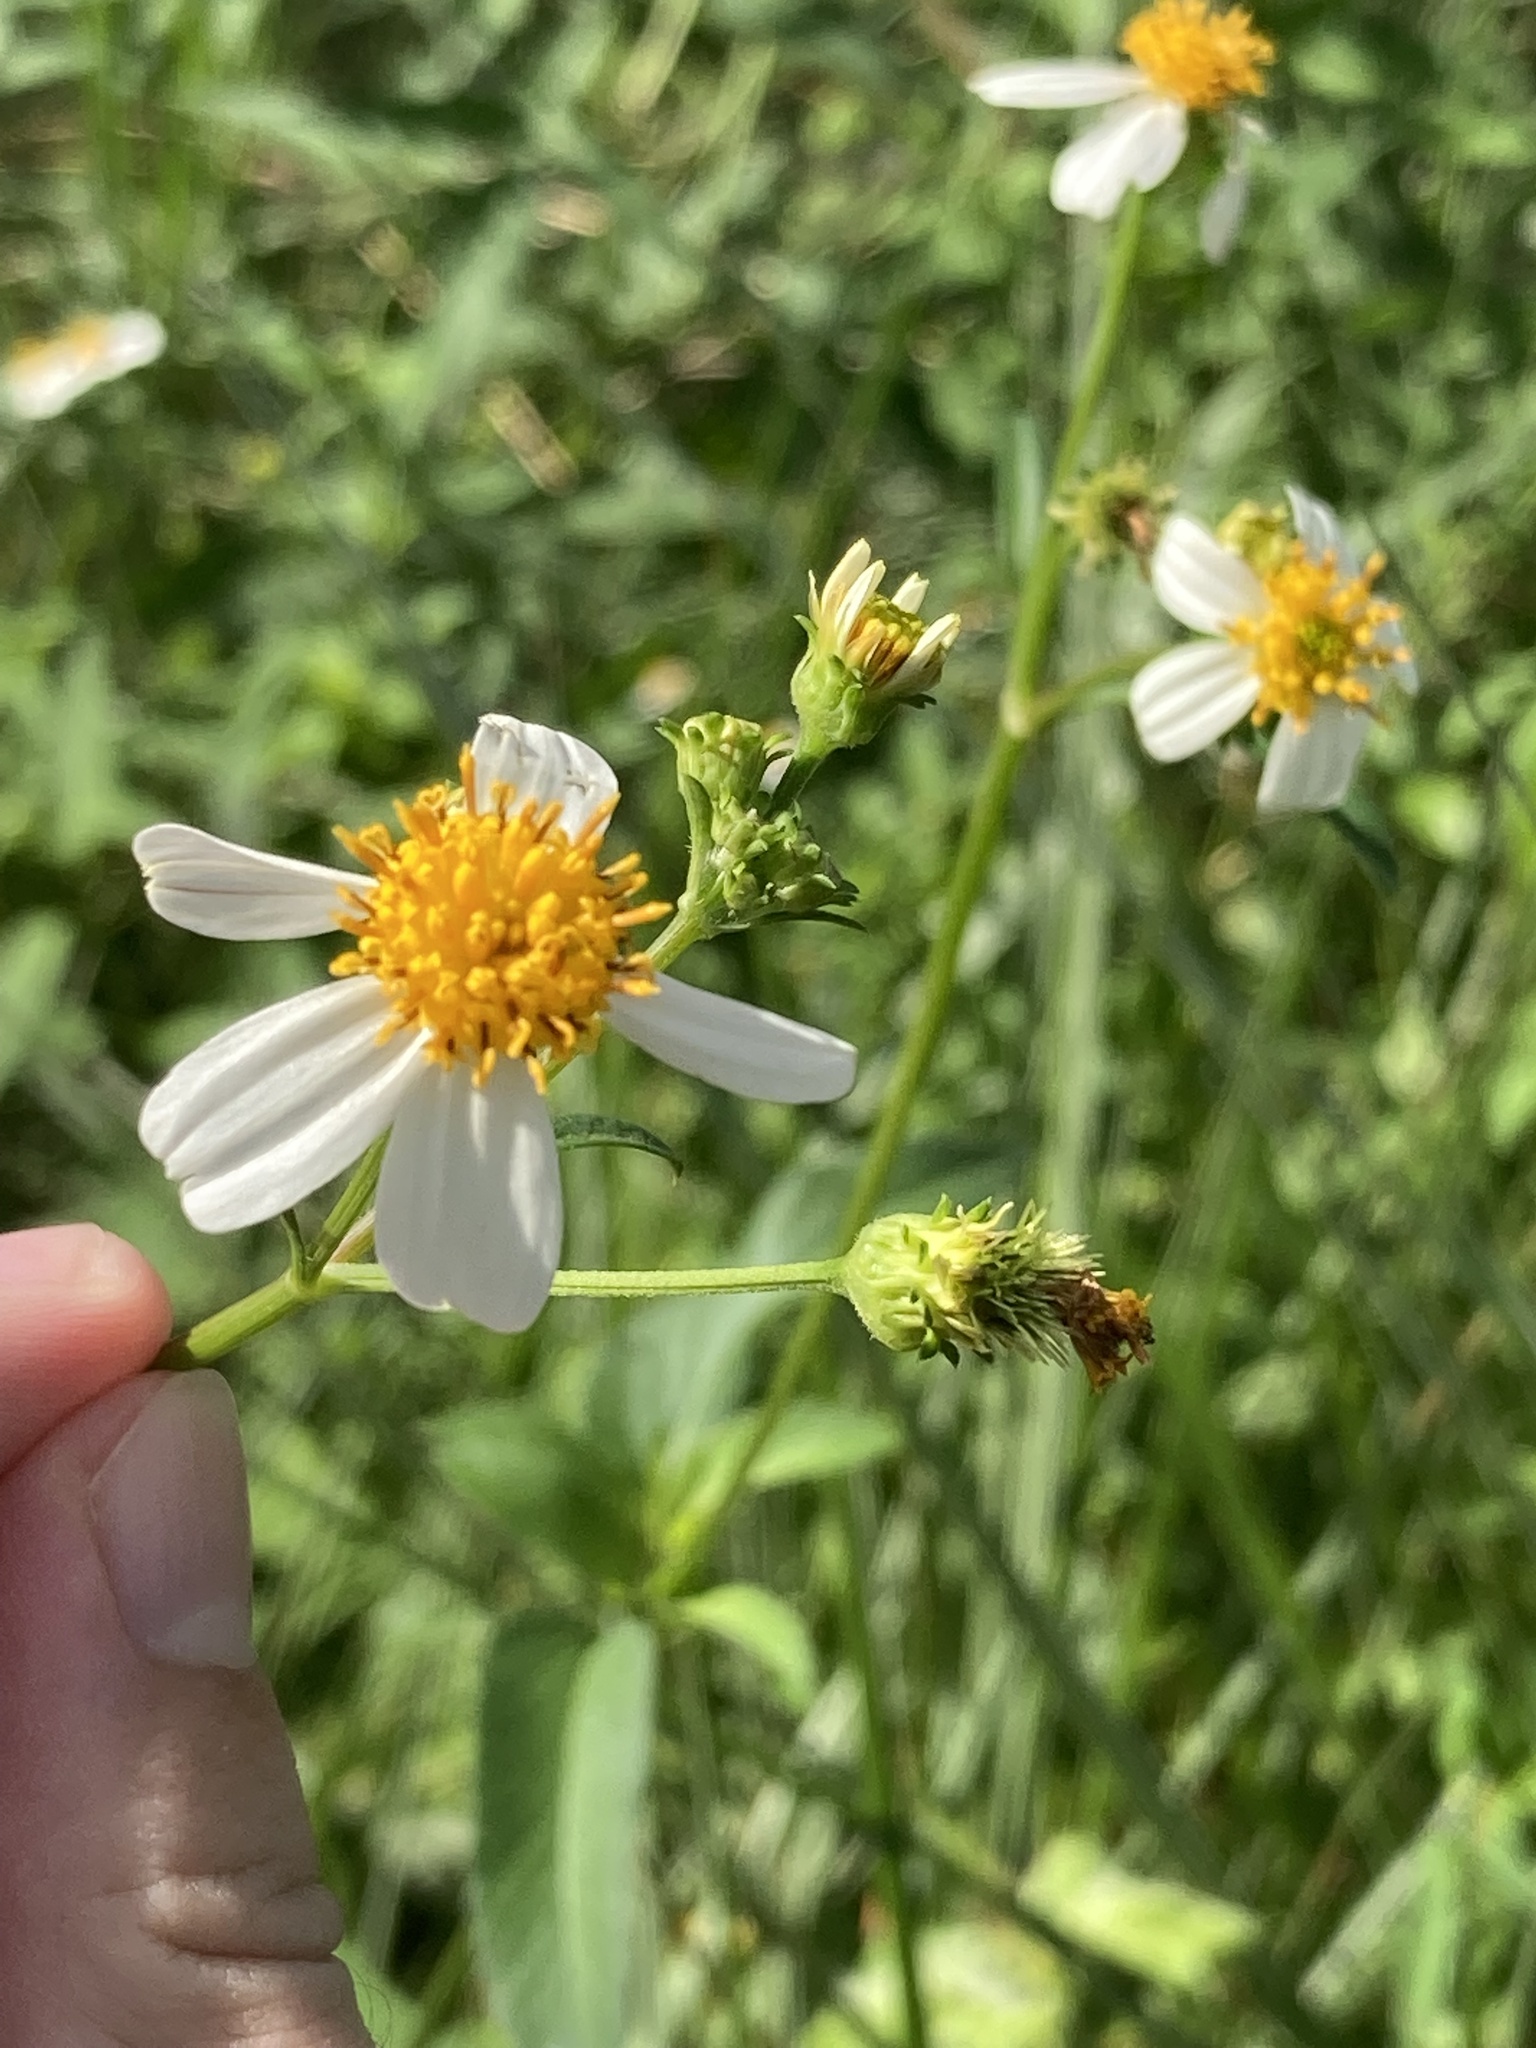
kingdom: Plantae
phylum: Tracheophyta
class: Magnoliopsida
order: Asterales
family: Asteraceae
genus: Bidens
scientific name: Bidens alba
